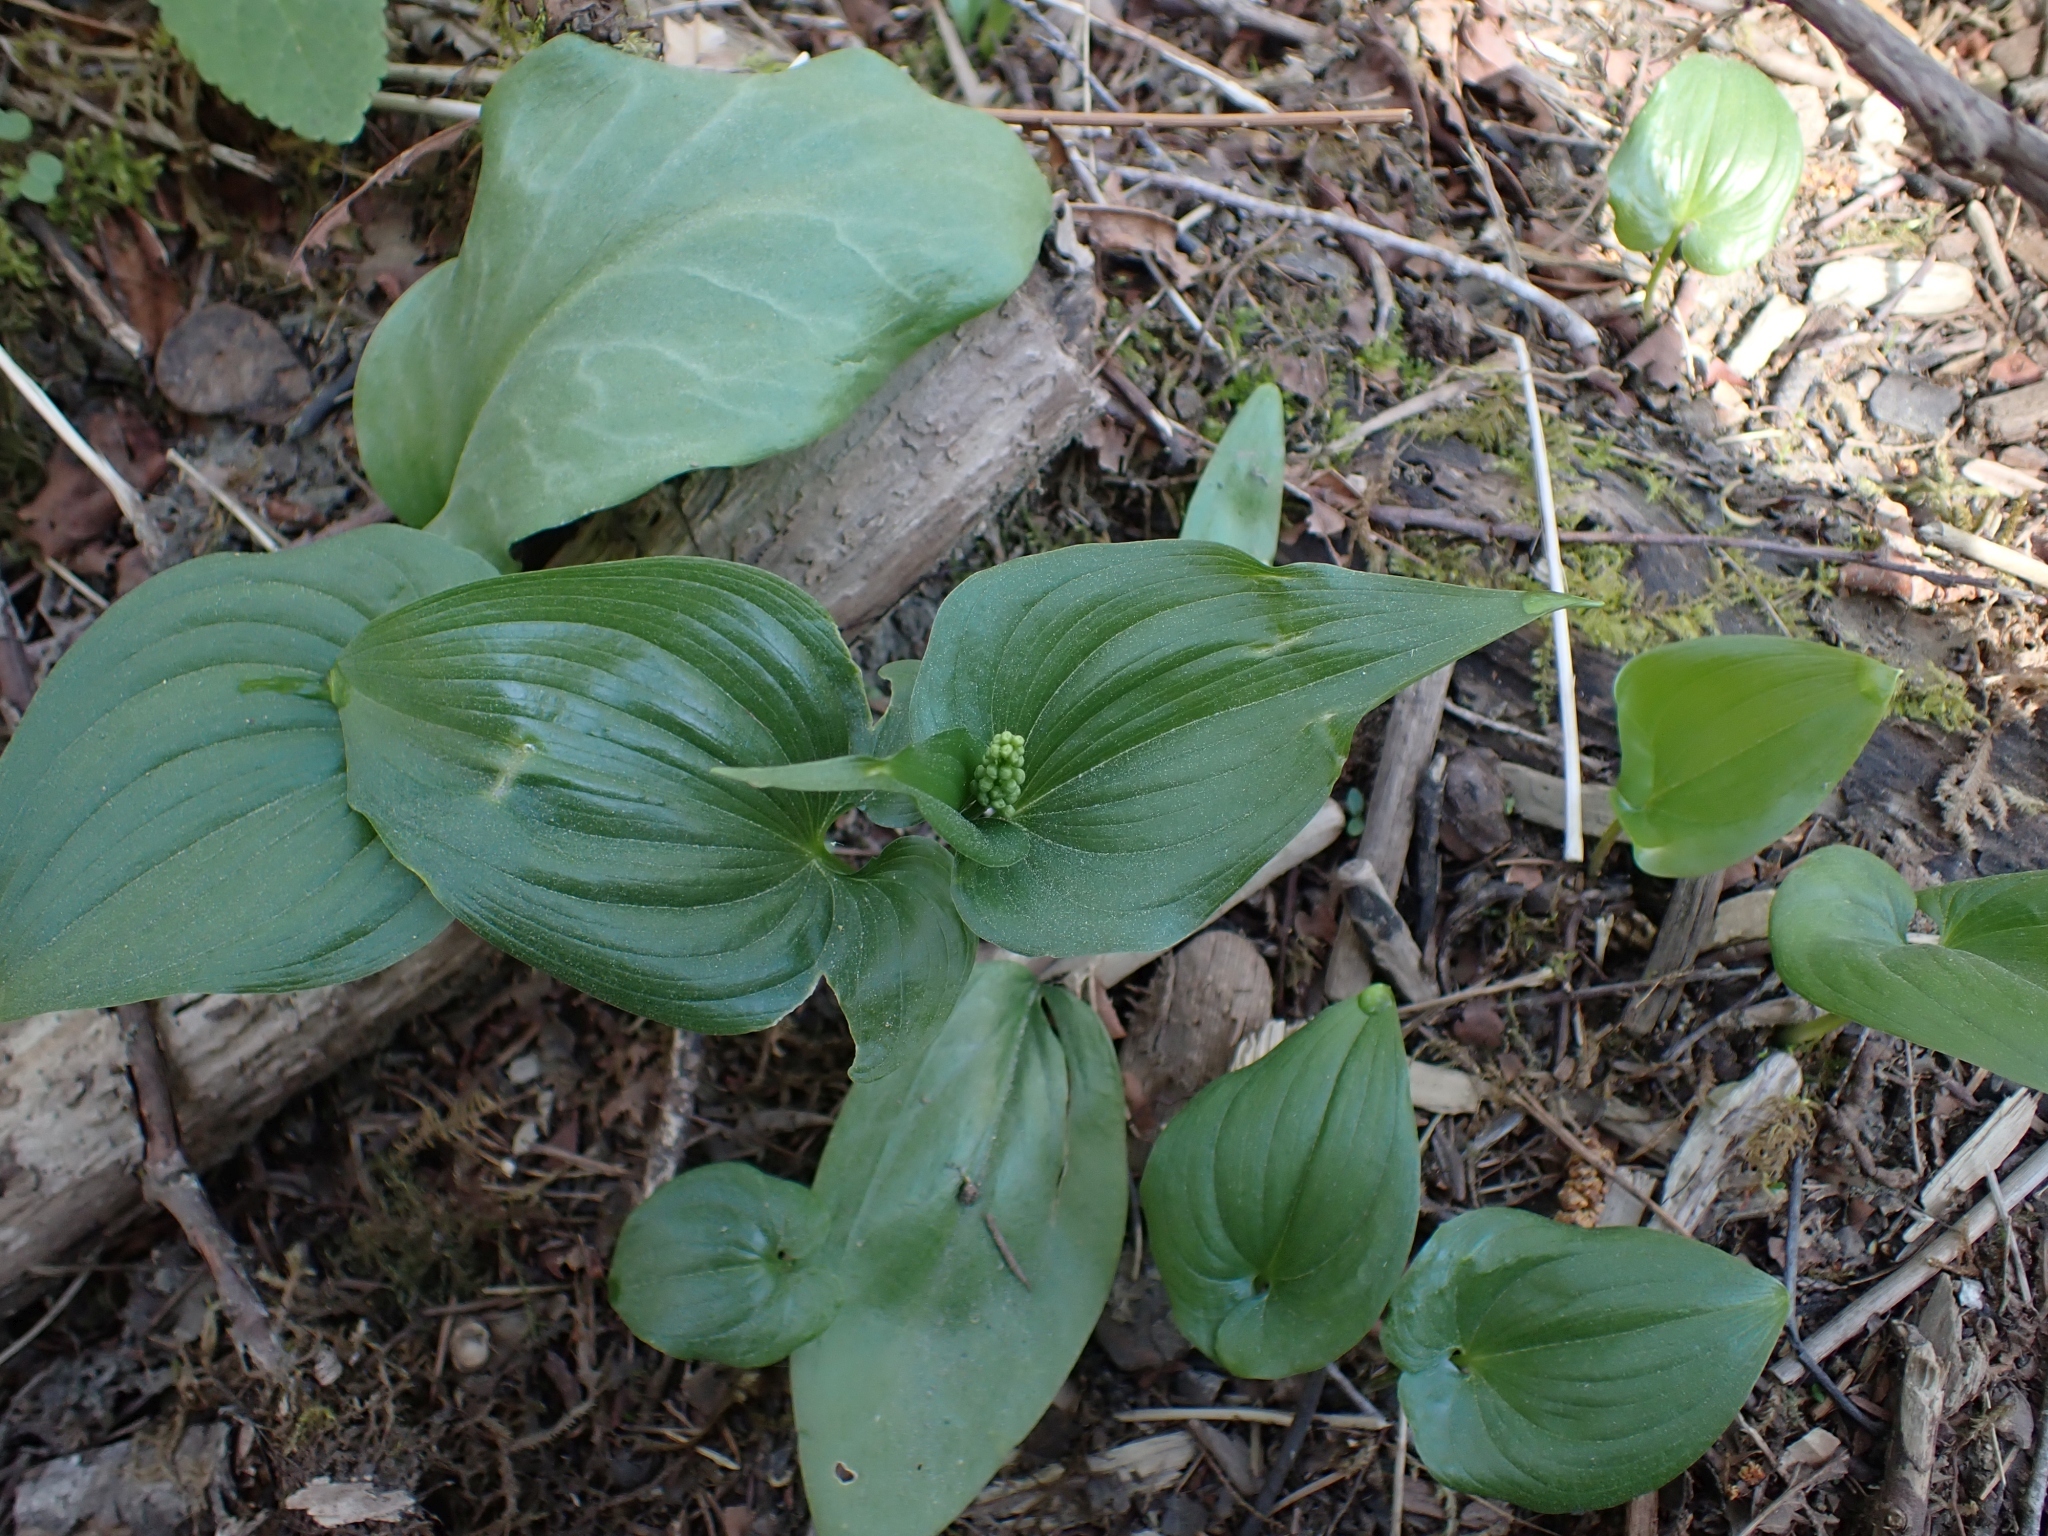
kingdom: Plantae
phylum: Tracheophyta
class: Liliopsida
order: Asparagales
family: Asparagaceae
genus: Maianthemum
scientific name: Maianthemum dilatatum
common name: False lily-of-the-valley
